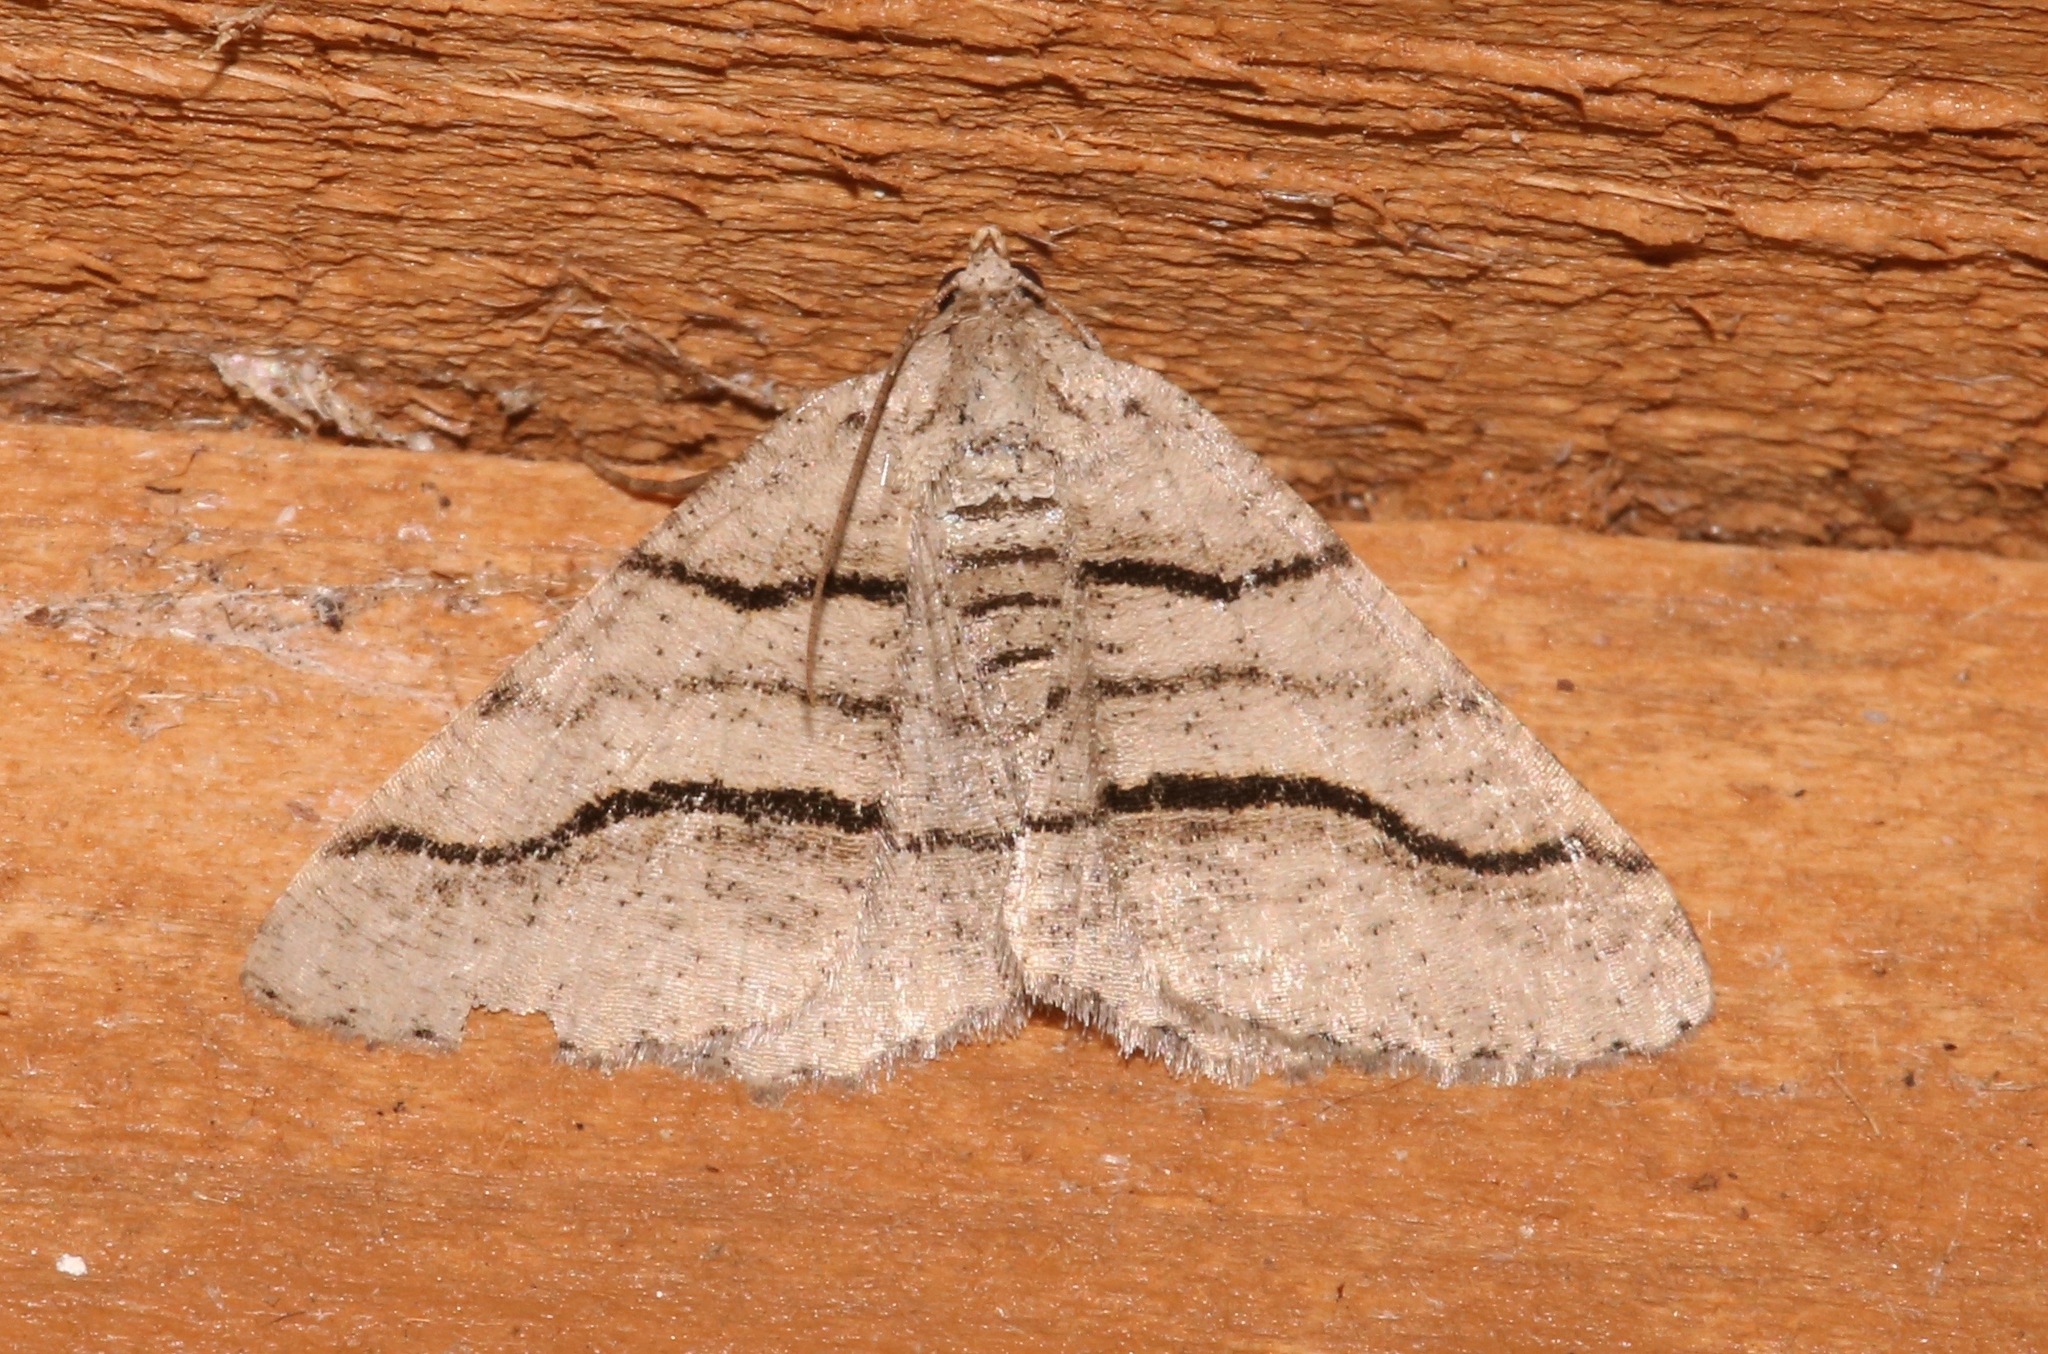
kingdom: Animalia
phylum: Arthropoda
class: Insecta
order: Lepidoptera
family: Geometridae
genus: Digrammia
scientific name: Digrammia continuata
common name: Curve-lined angle
